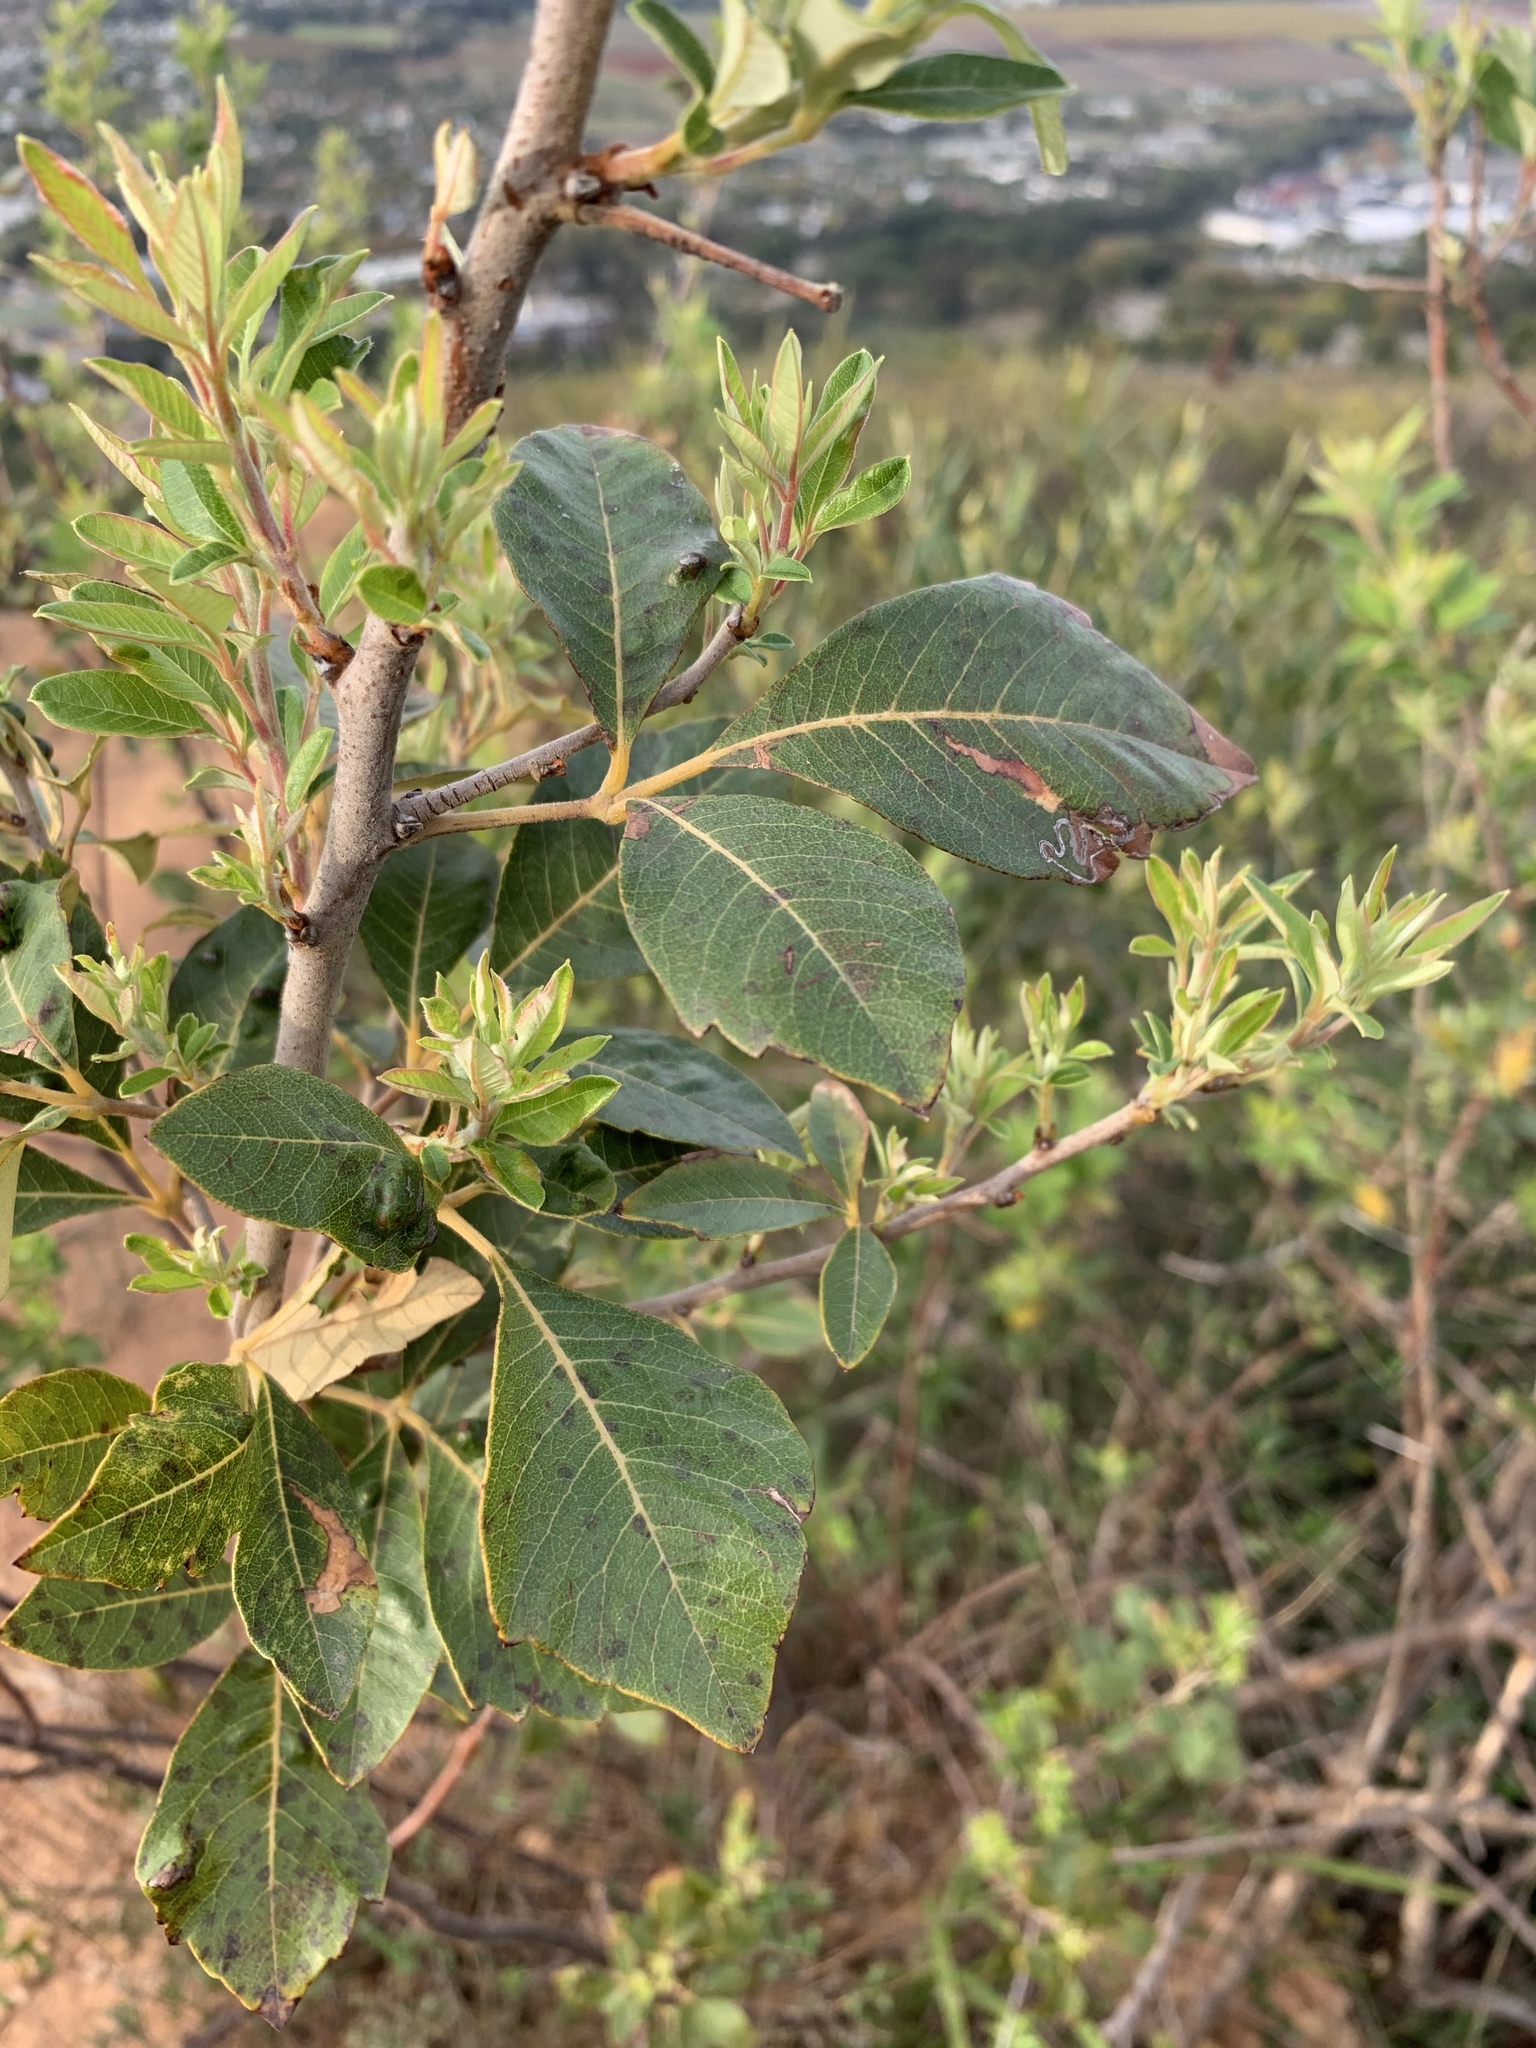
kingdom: Plantae
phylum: Tracheophyta
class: Magnoliopsida
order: Sapindales
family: Anacardiaceae
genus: Searsia
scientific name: Searsia tomentosa
